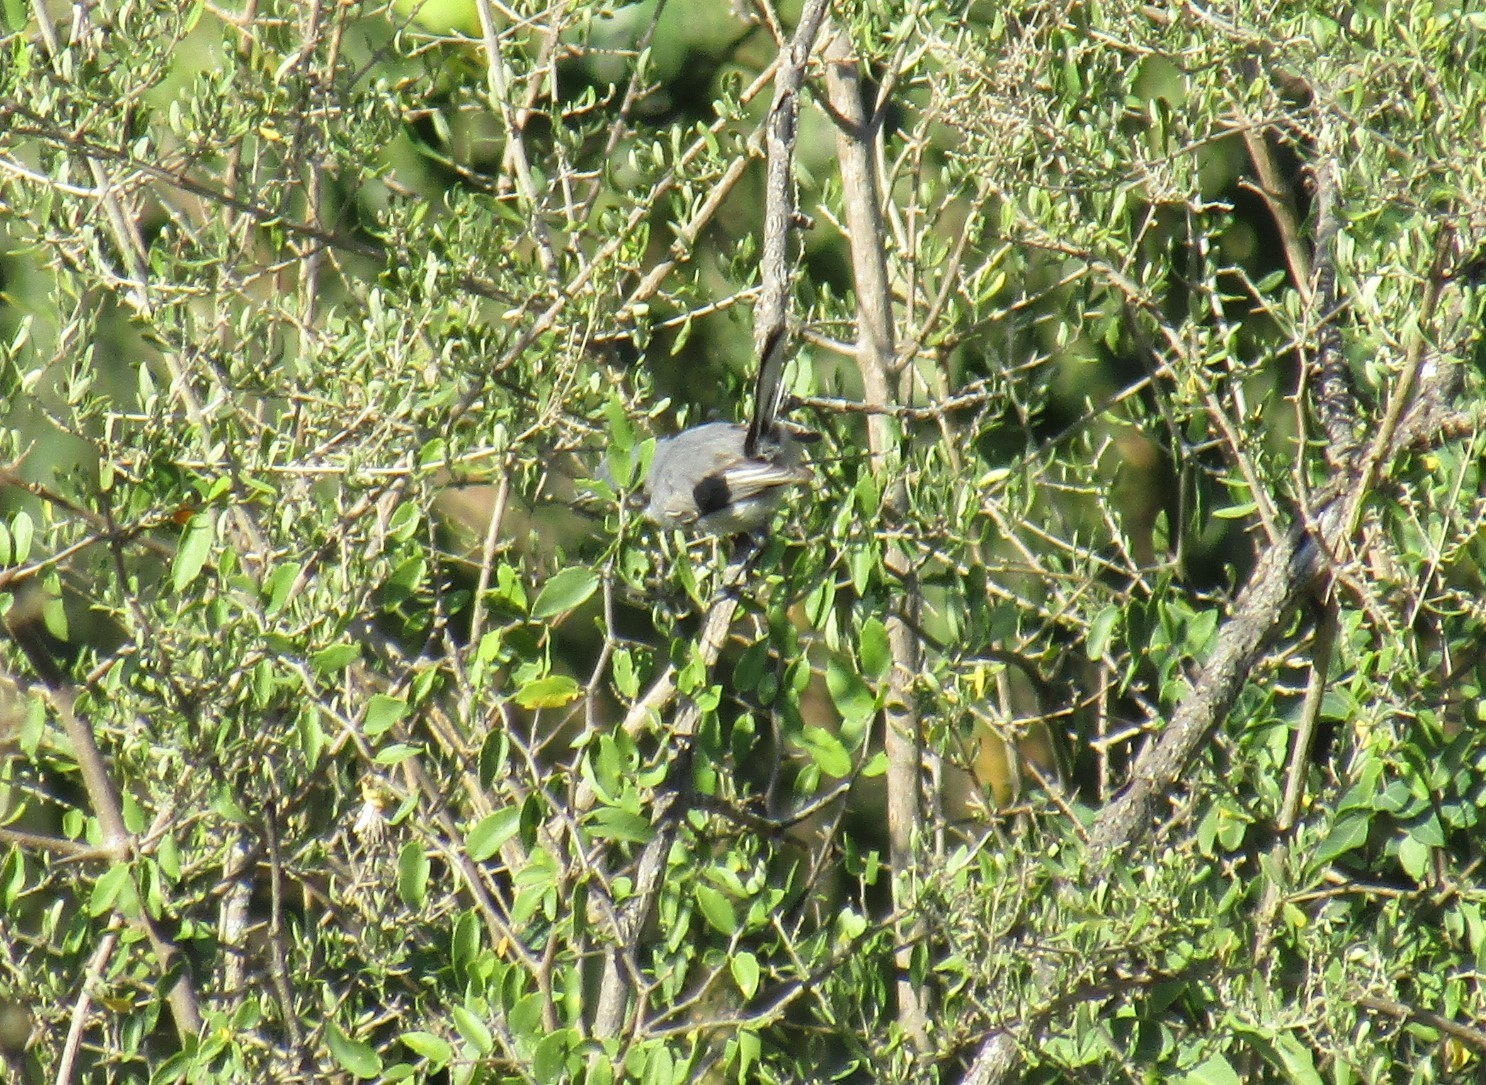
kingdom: Animalia
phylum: Chordata
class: Aves
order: Passeriformes
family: Polioptilidae
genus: Polioptila
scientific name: Polioptila dumicola
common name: Masked gnatcatcher
